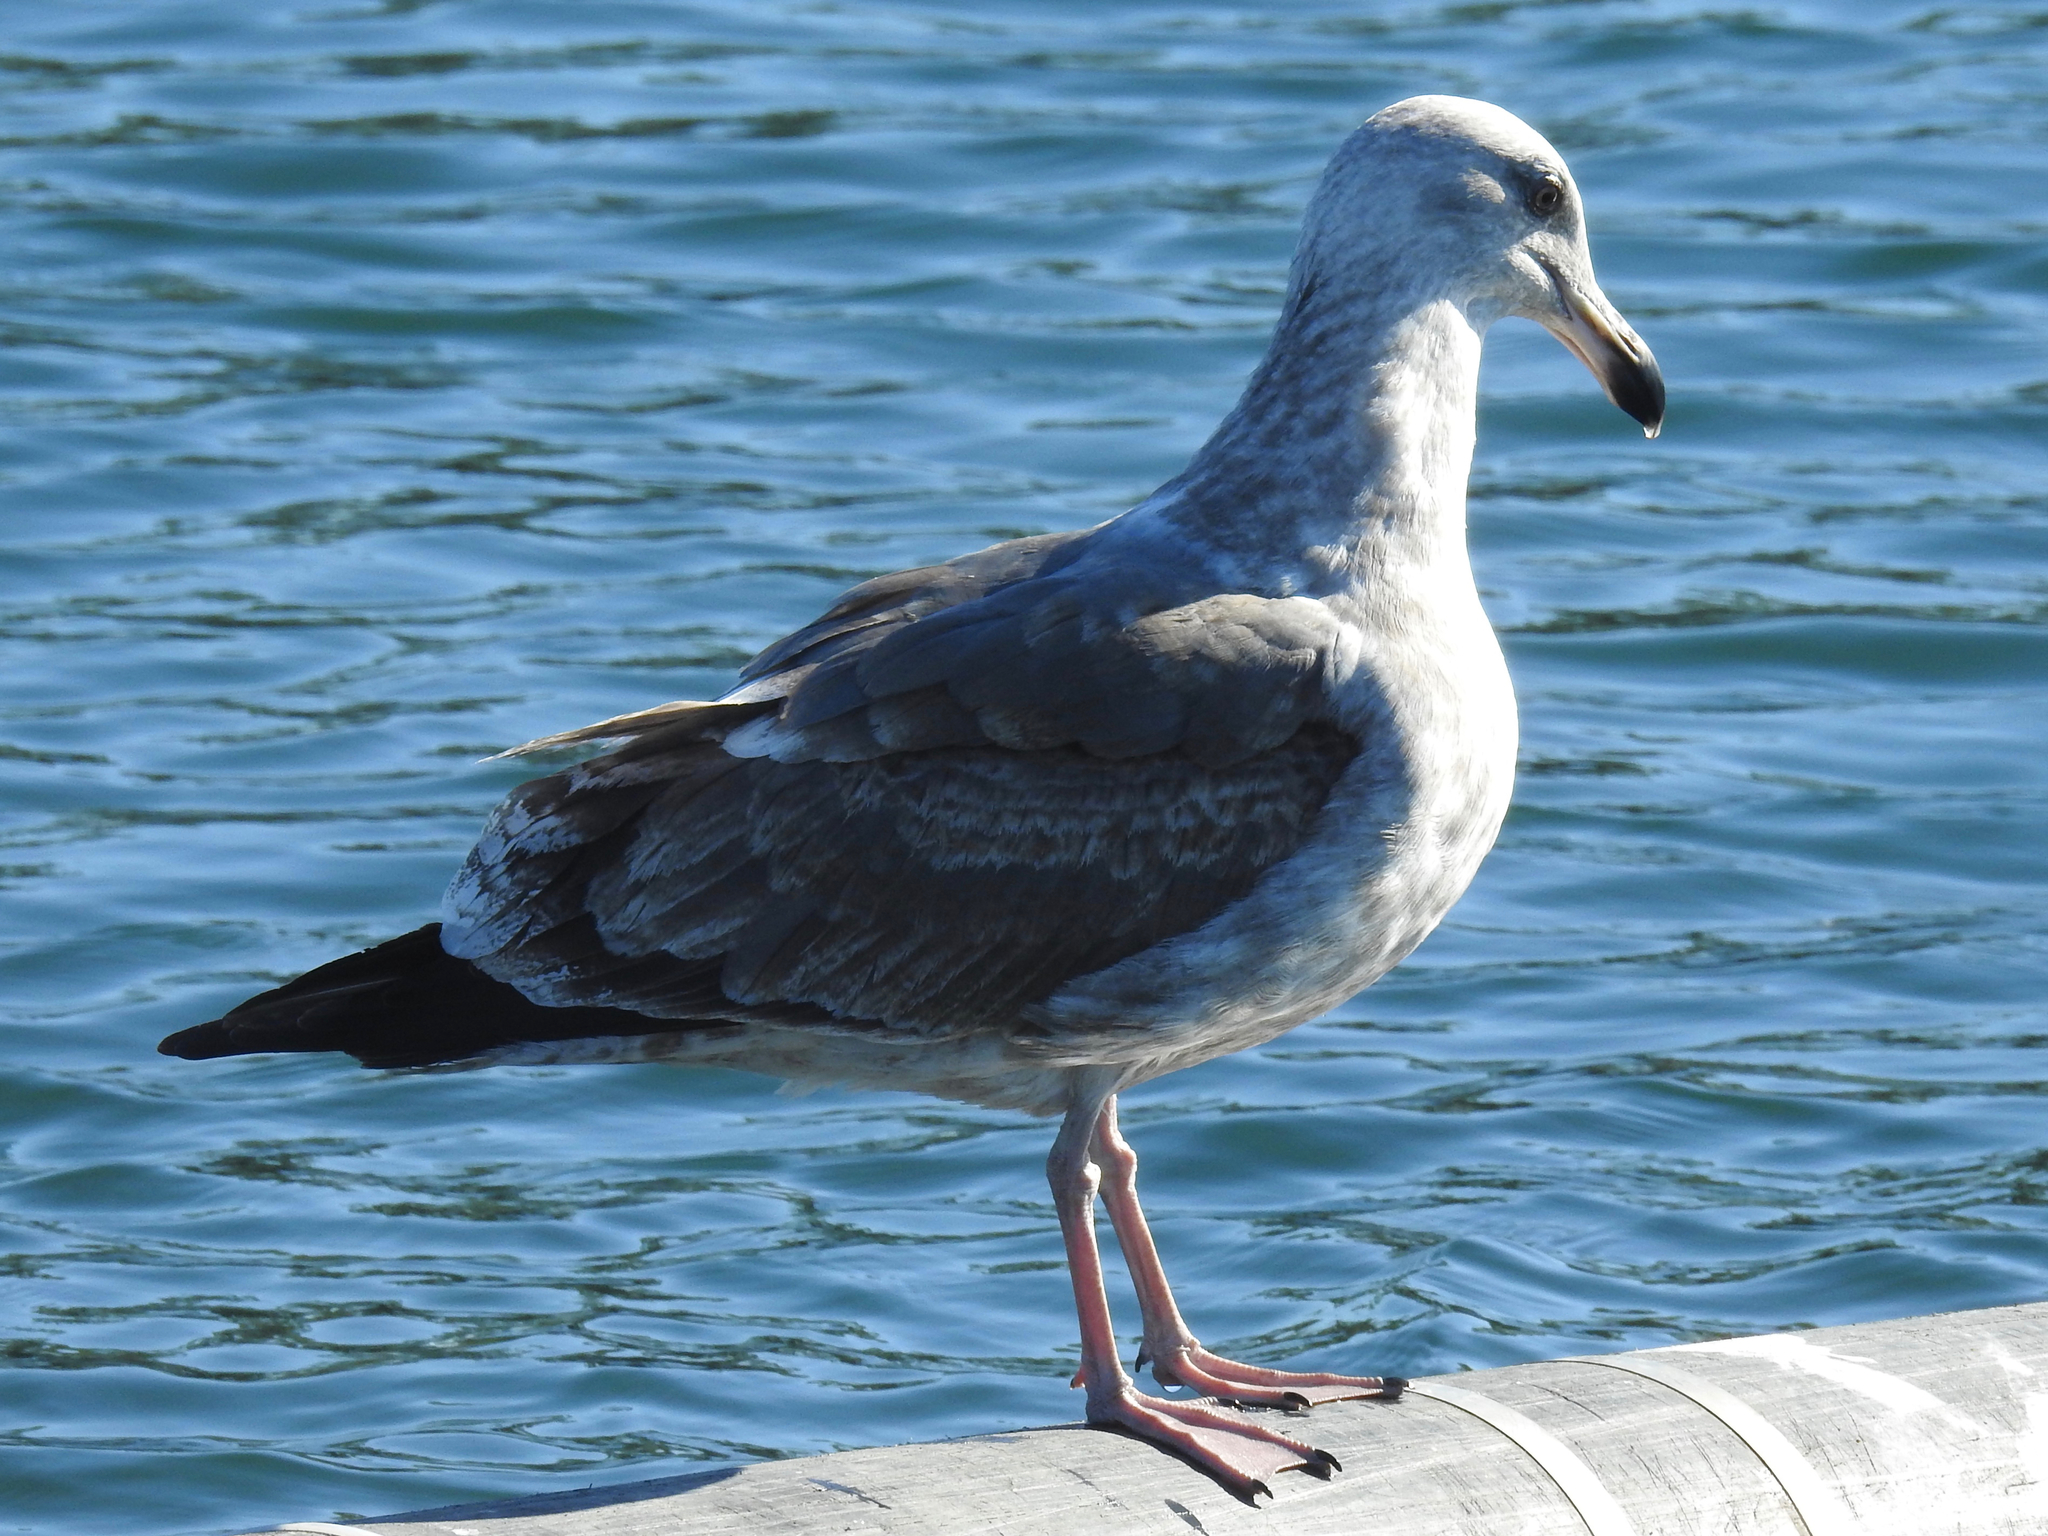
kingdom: Animalia
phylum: Chordata
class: Aves
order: Charadriiformes
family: Laridae
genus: Larus
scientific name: Larus occidentalis
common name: Western gull
